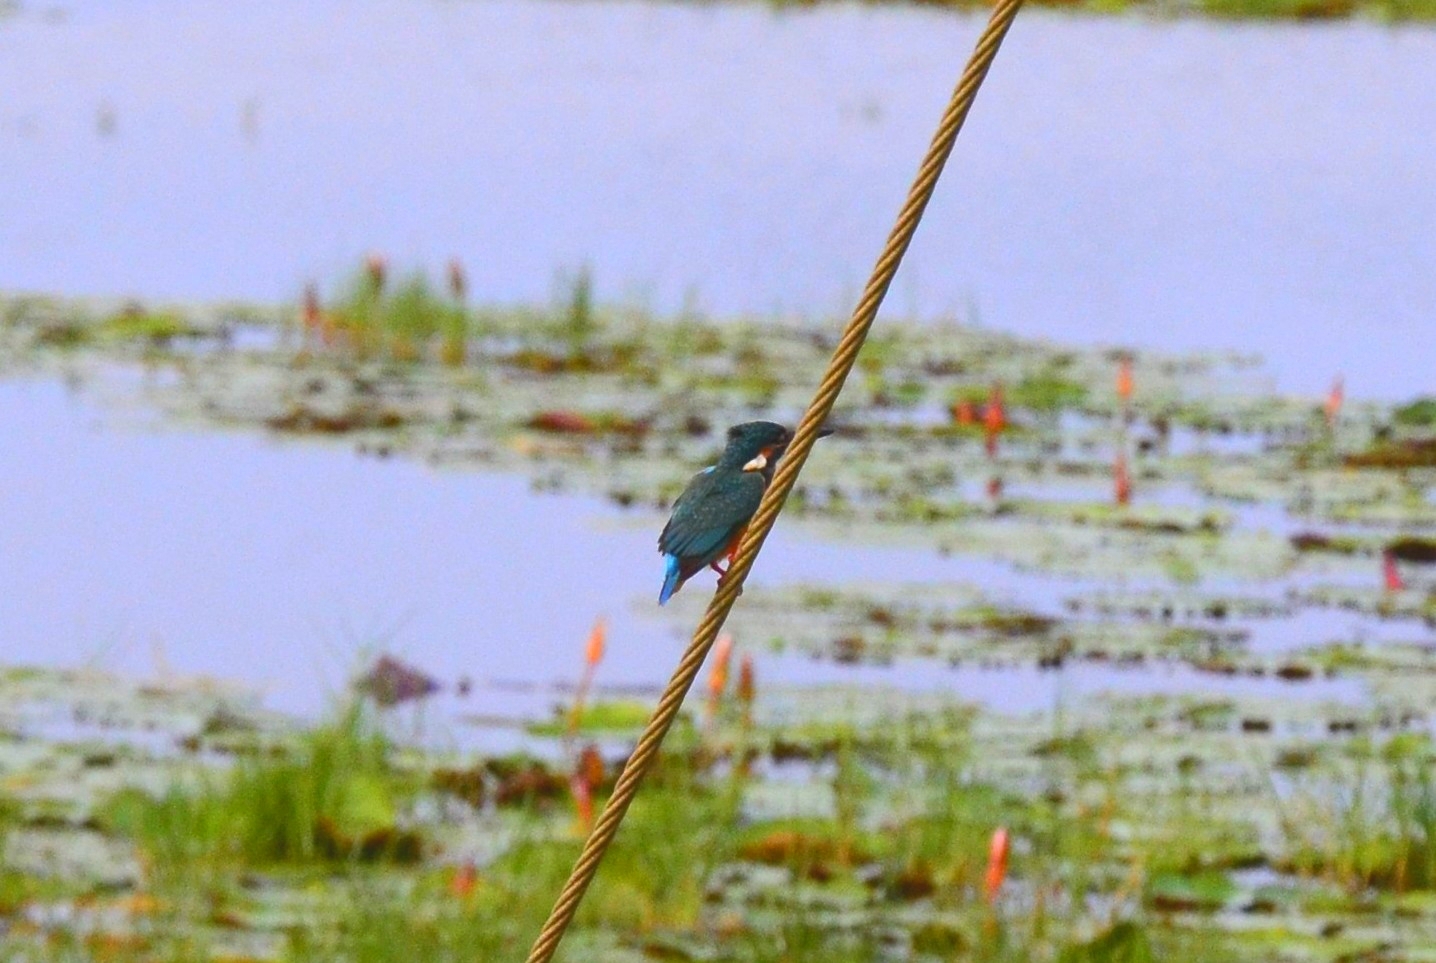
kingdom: Animalia
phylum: Chordata
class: Aves
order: Coraciiformes
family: Alcedinidae
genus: Alcedo
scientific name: Alcedo atthis
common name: Common kingfisher
